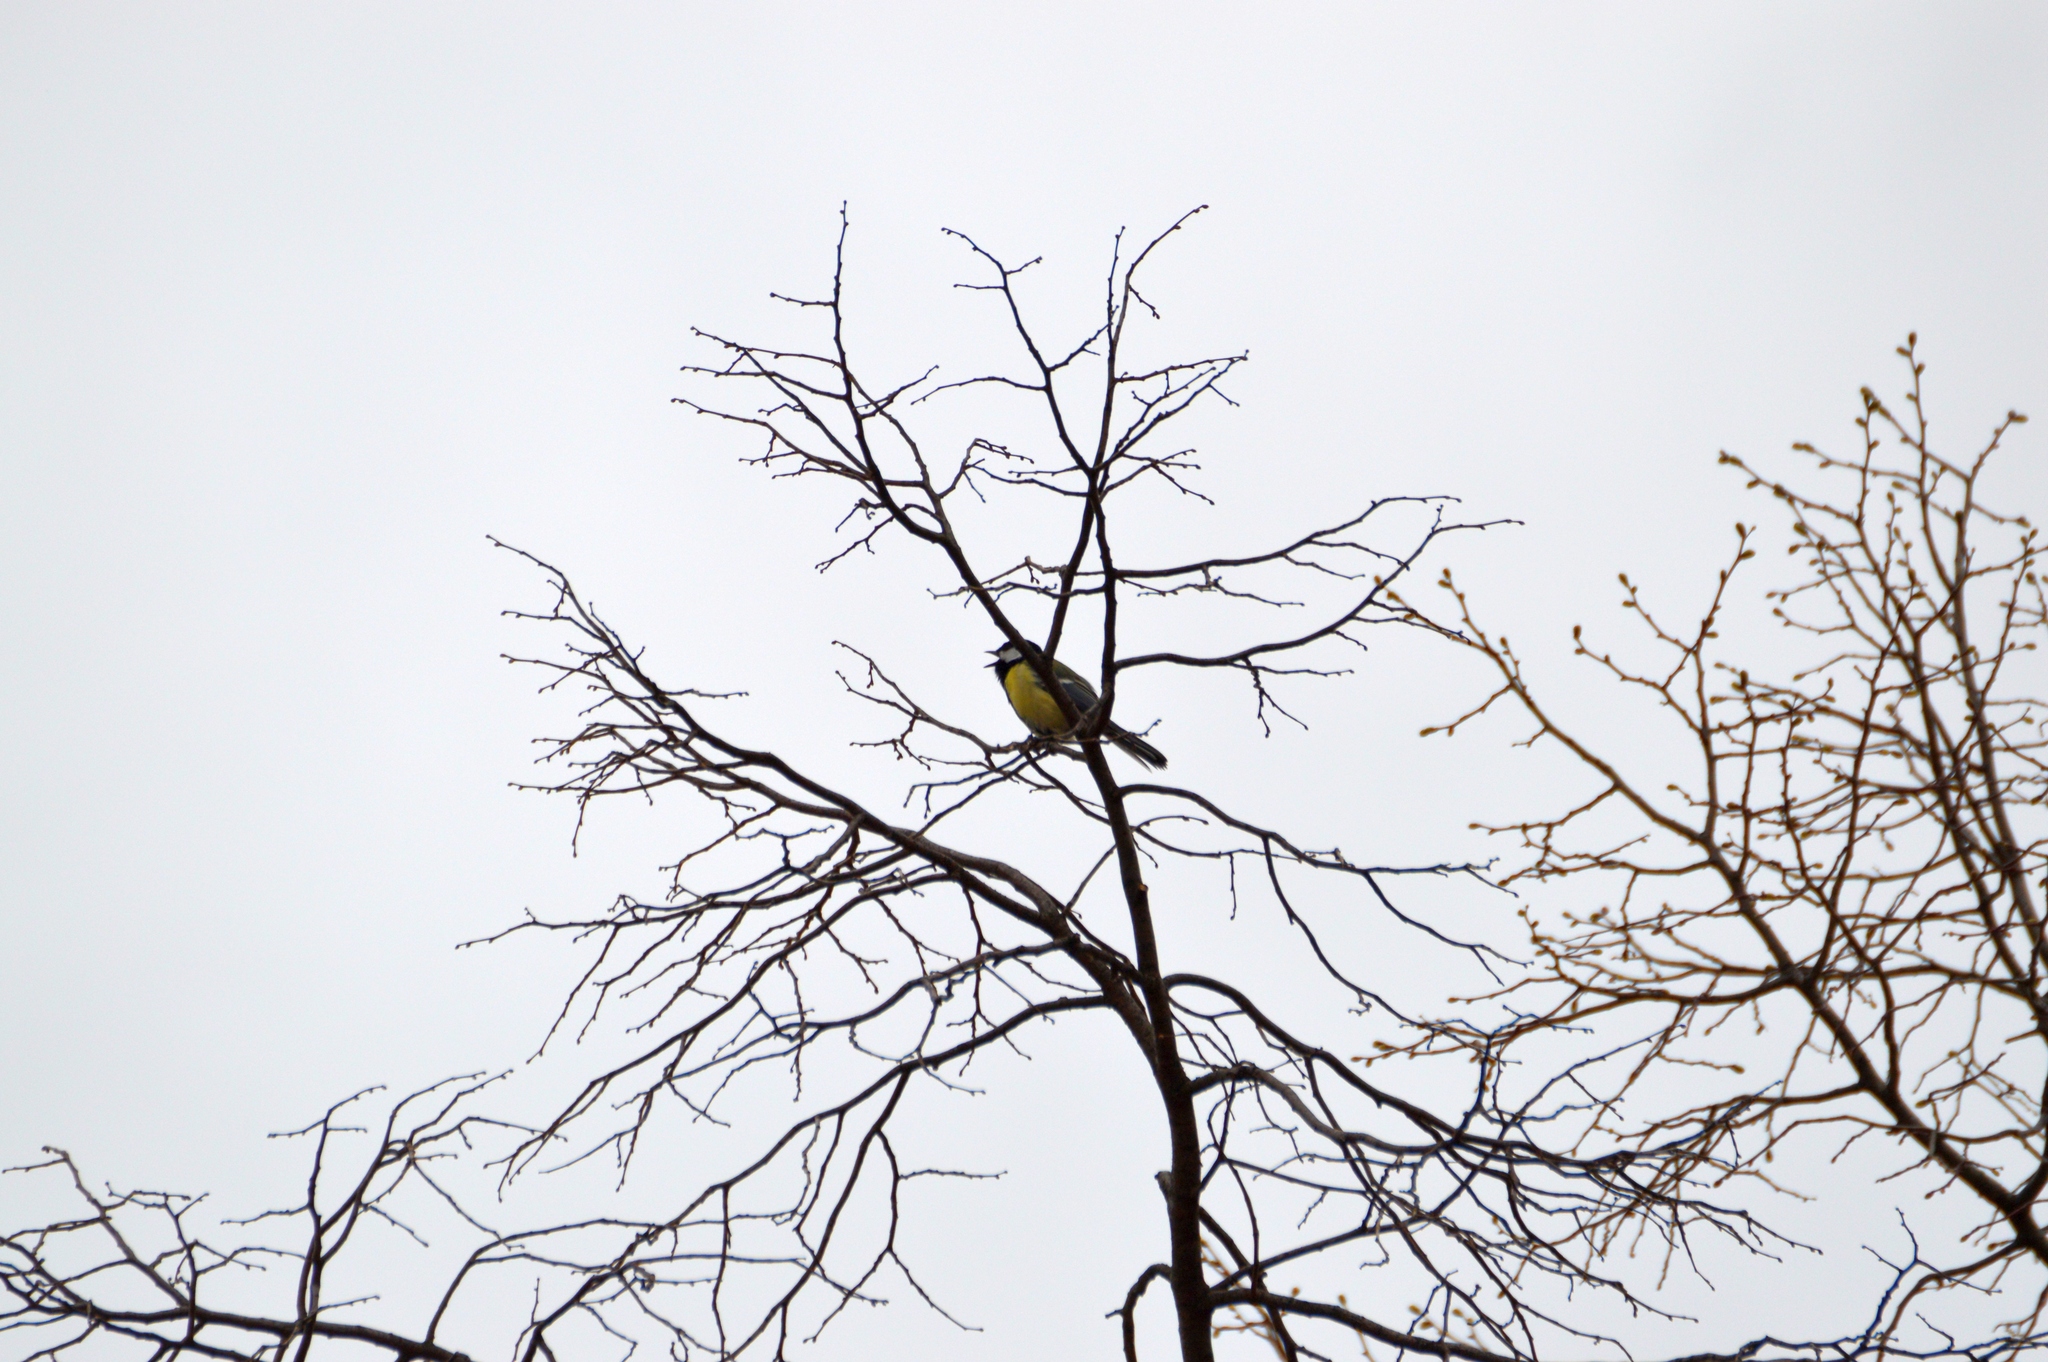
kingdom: Animalia
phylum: Chordata
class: Aves
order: Passeriformes
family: Paridae
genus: Parus
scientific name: Parus major
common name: Great tit
